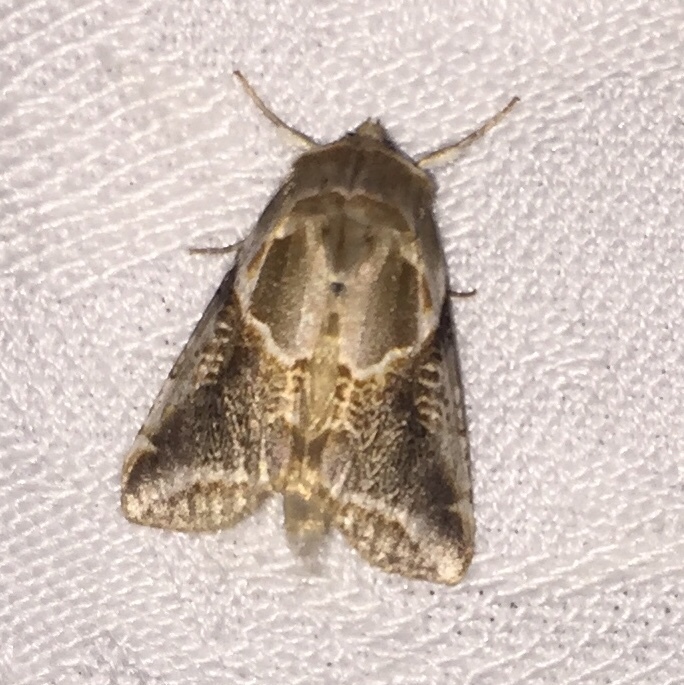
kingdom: Animalia
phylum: Arthropoda
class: Insecta
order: Lepidoptera
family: Drepanidae
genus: Habrosyne
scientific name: Habrosyne scripta
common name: Lettered habrosyne moth
